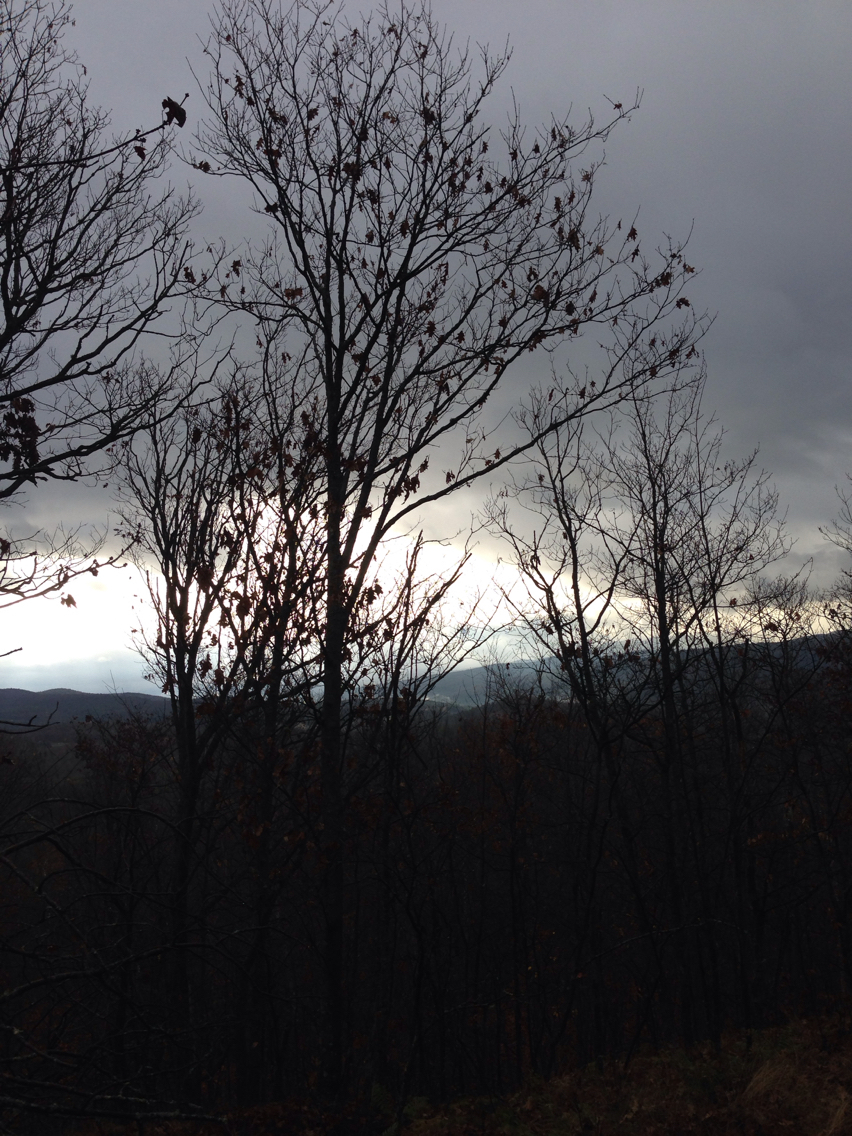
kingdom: Plantae
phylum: Tracheophyta
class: Magnoliopsida
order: Fagales
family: Fagaceae
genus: Quercus
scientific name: Quercus rubra
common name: Red oak
